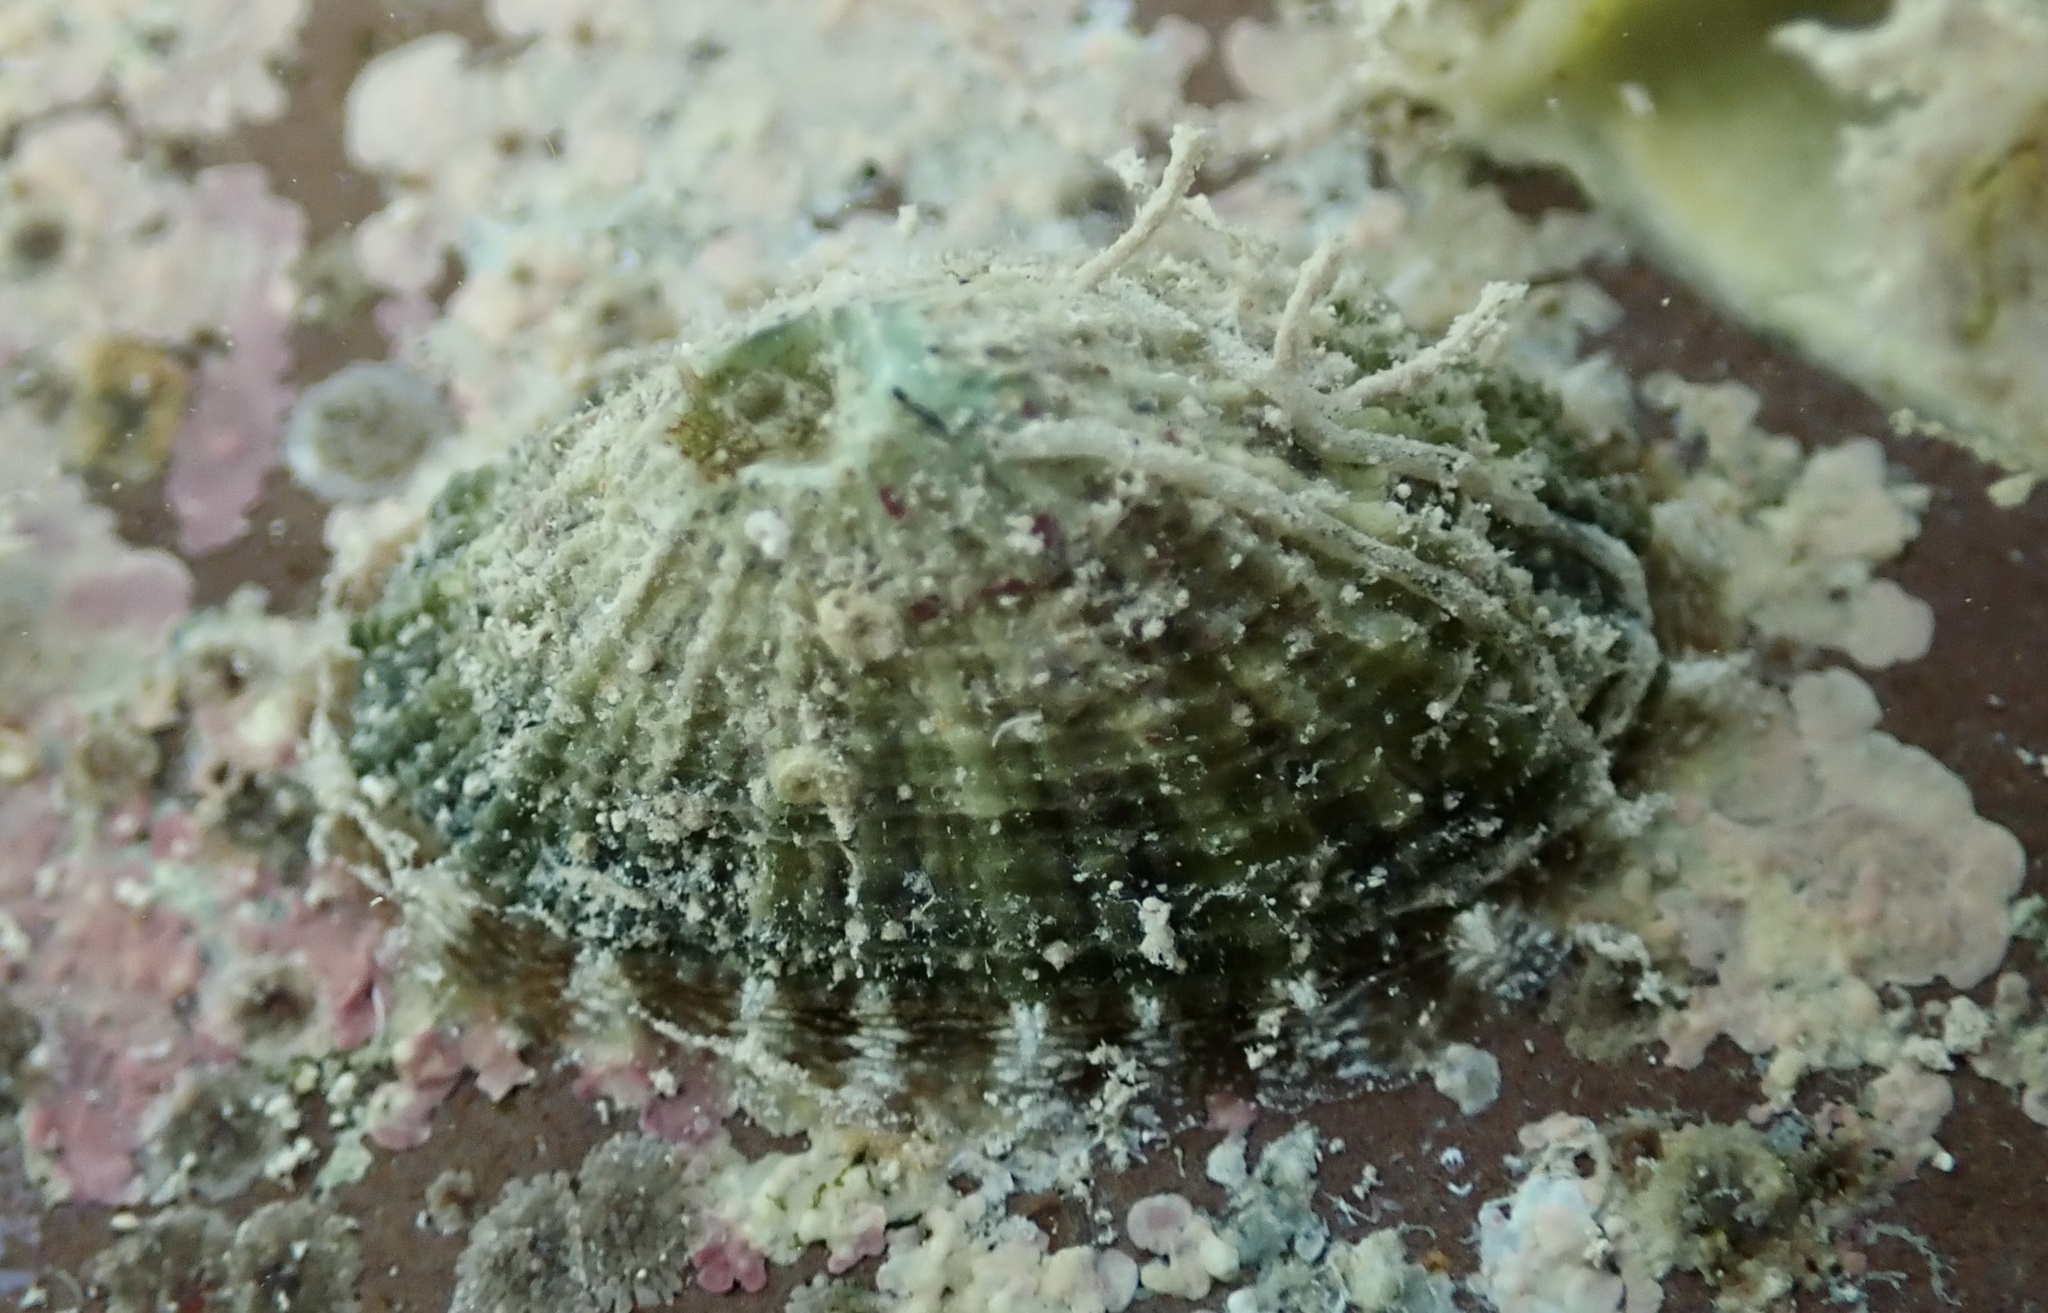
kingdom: Animalia
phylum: Mollusca
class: Gastropoda
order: Lepetellida
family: Fissurellidae
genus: Diodora
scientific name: Diodora cayenensis
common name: Cayenne keyhole limpet
